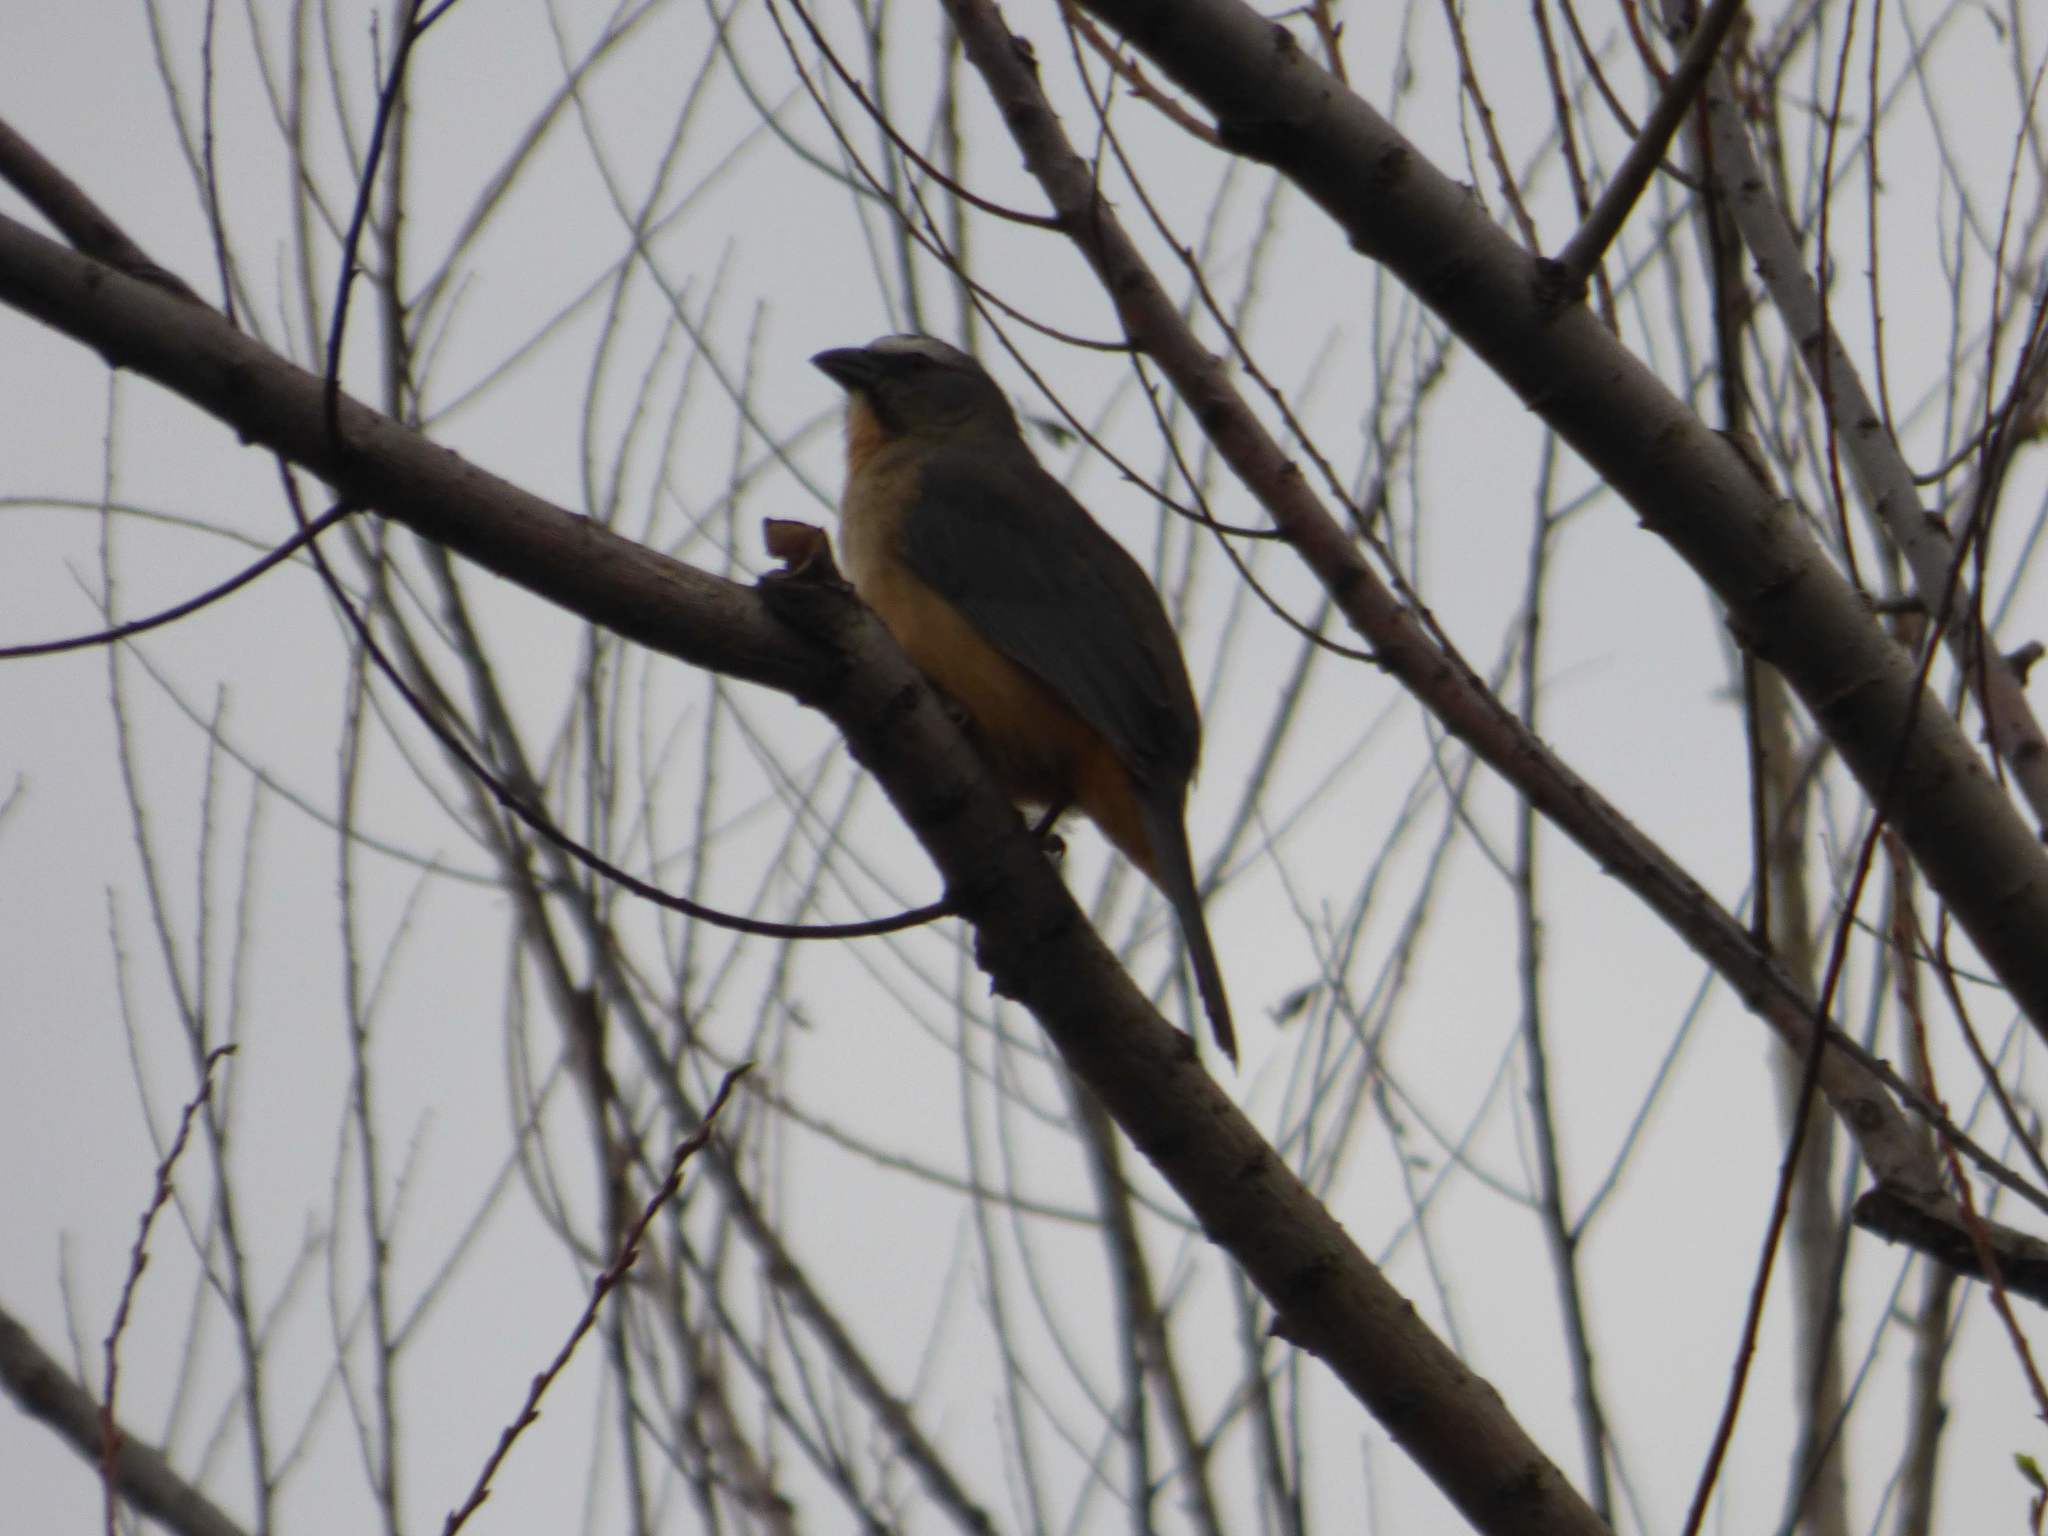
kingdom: Animalia
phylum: Chordata
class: Aves
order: Passeriformes
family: Thraupidae
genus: Saltator
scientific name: Saltator coerulescens
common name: Grayish saltator
